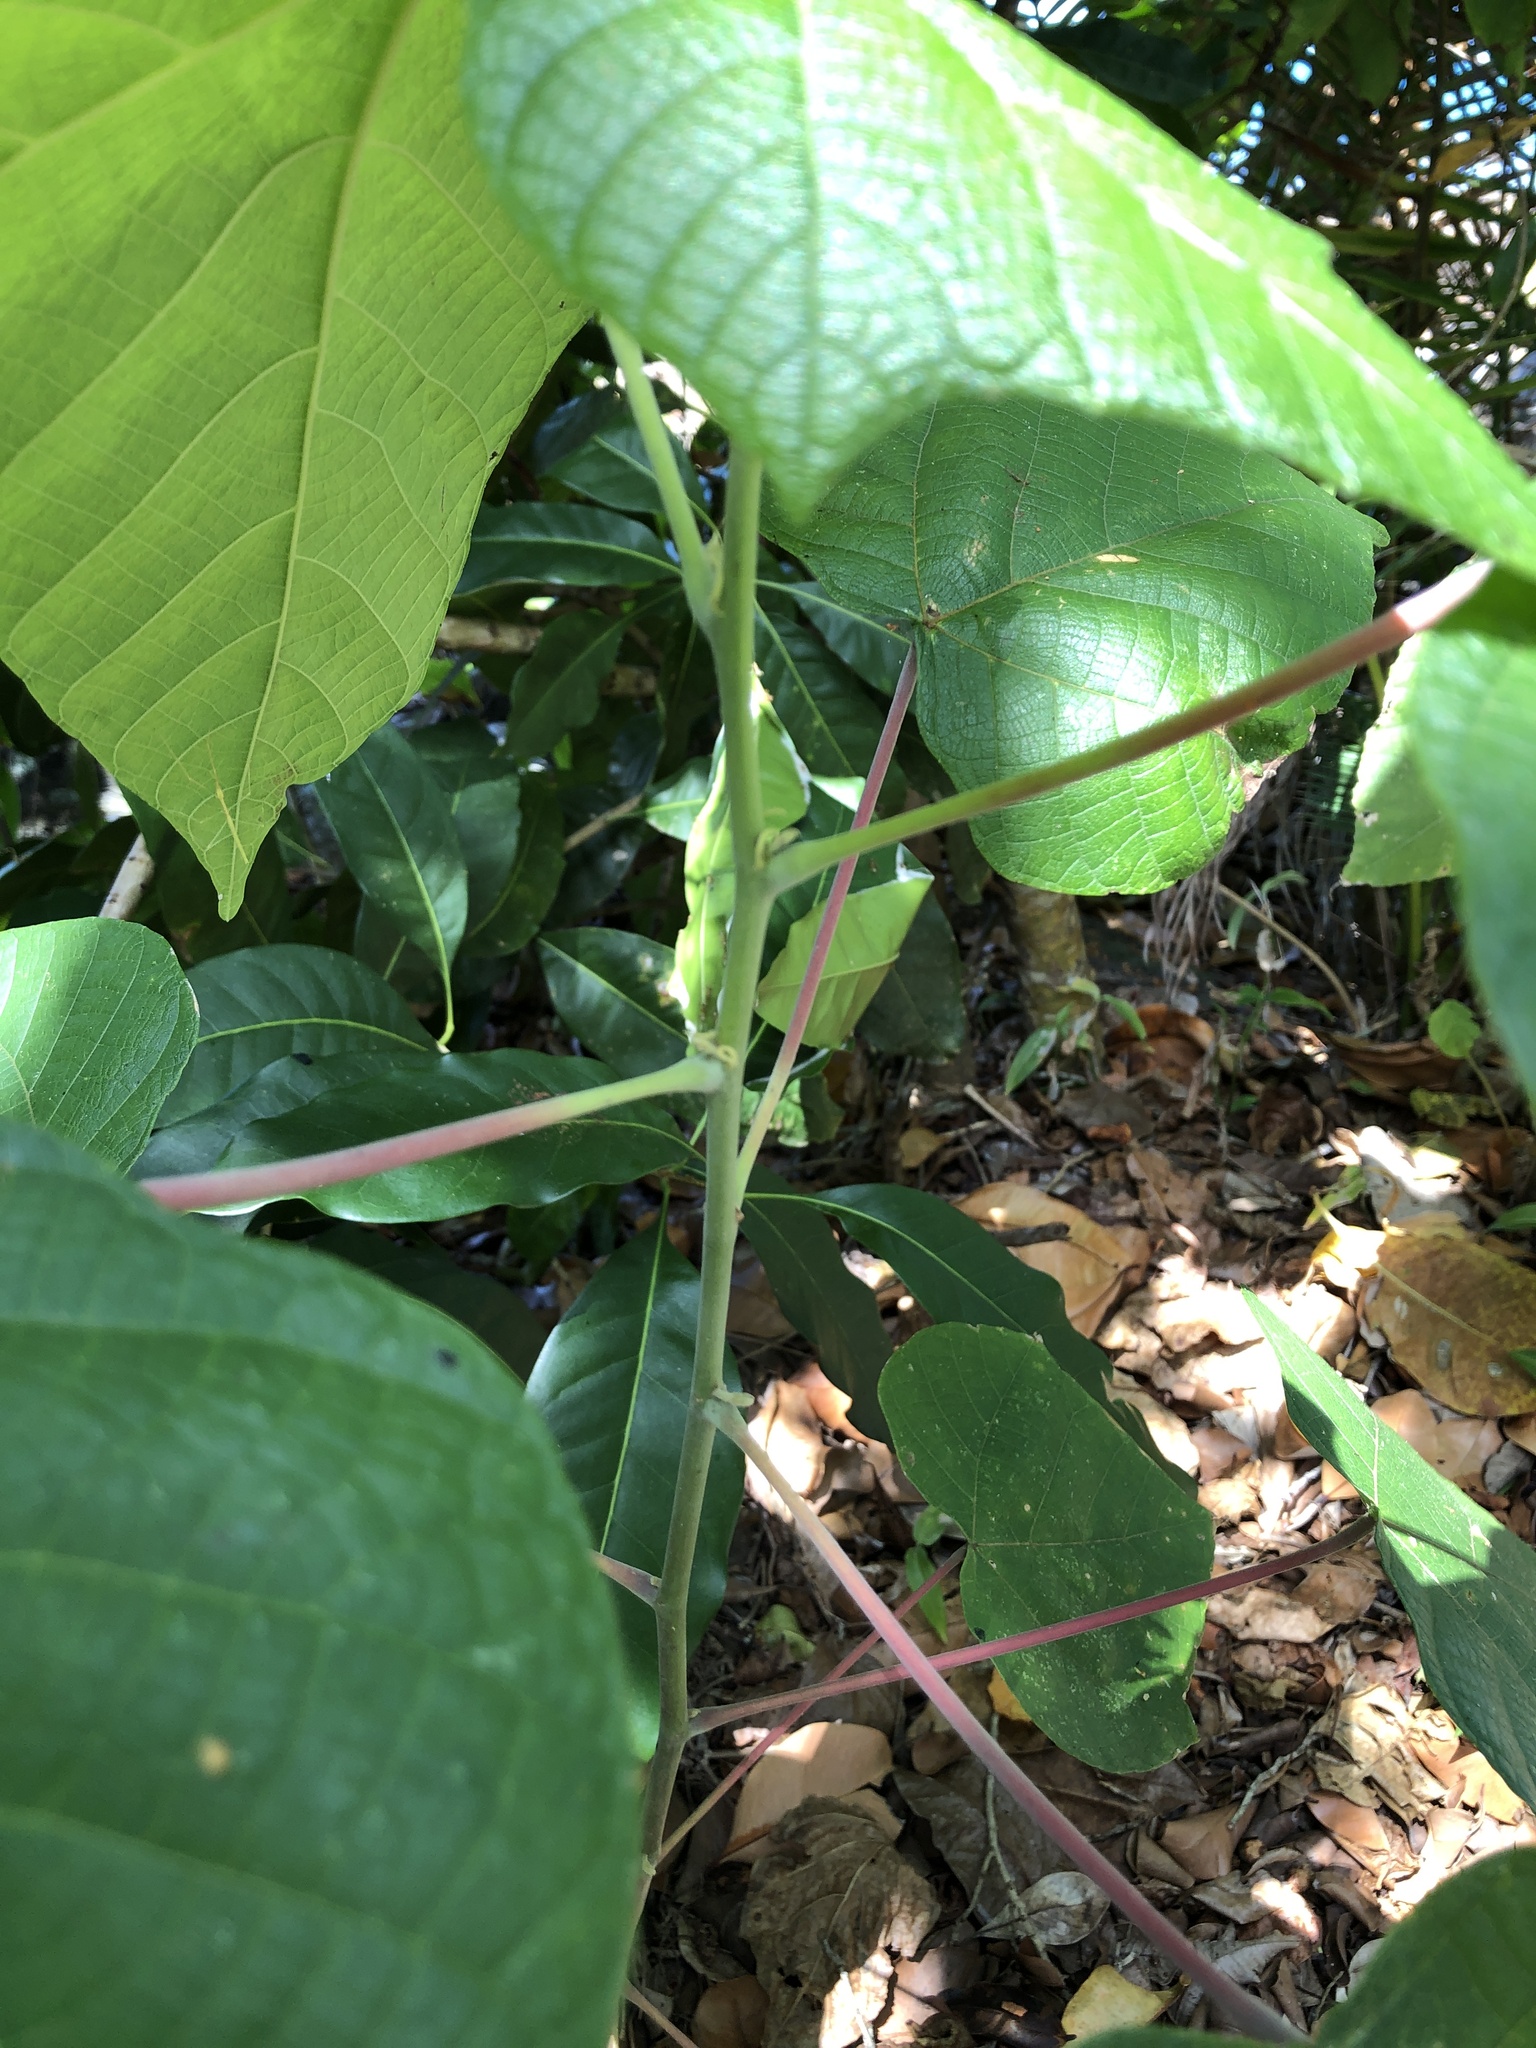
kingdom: Plantae
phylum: Tracheophyta
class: Magnoliopsida
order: Malpighiales
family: Euphorbiaceae
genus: Macaranga
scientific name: Macaranga involucrata
